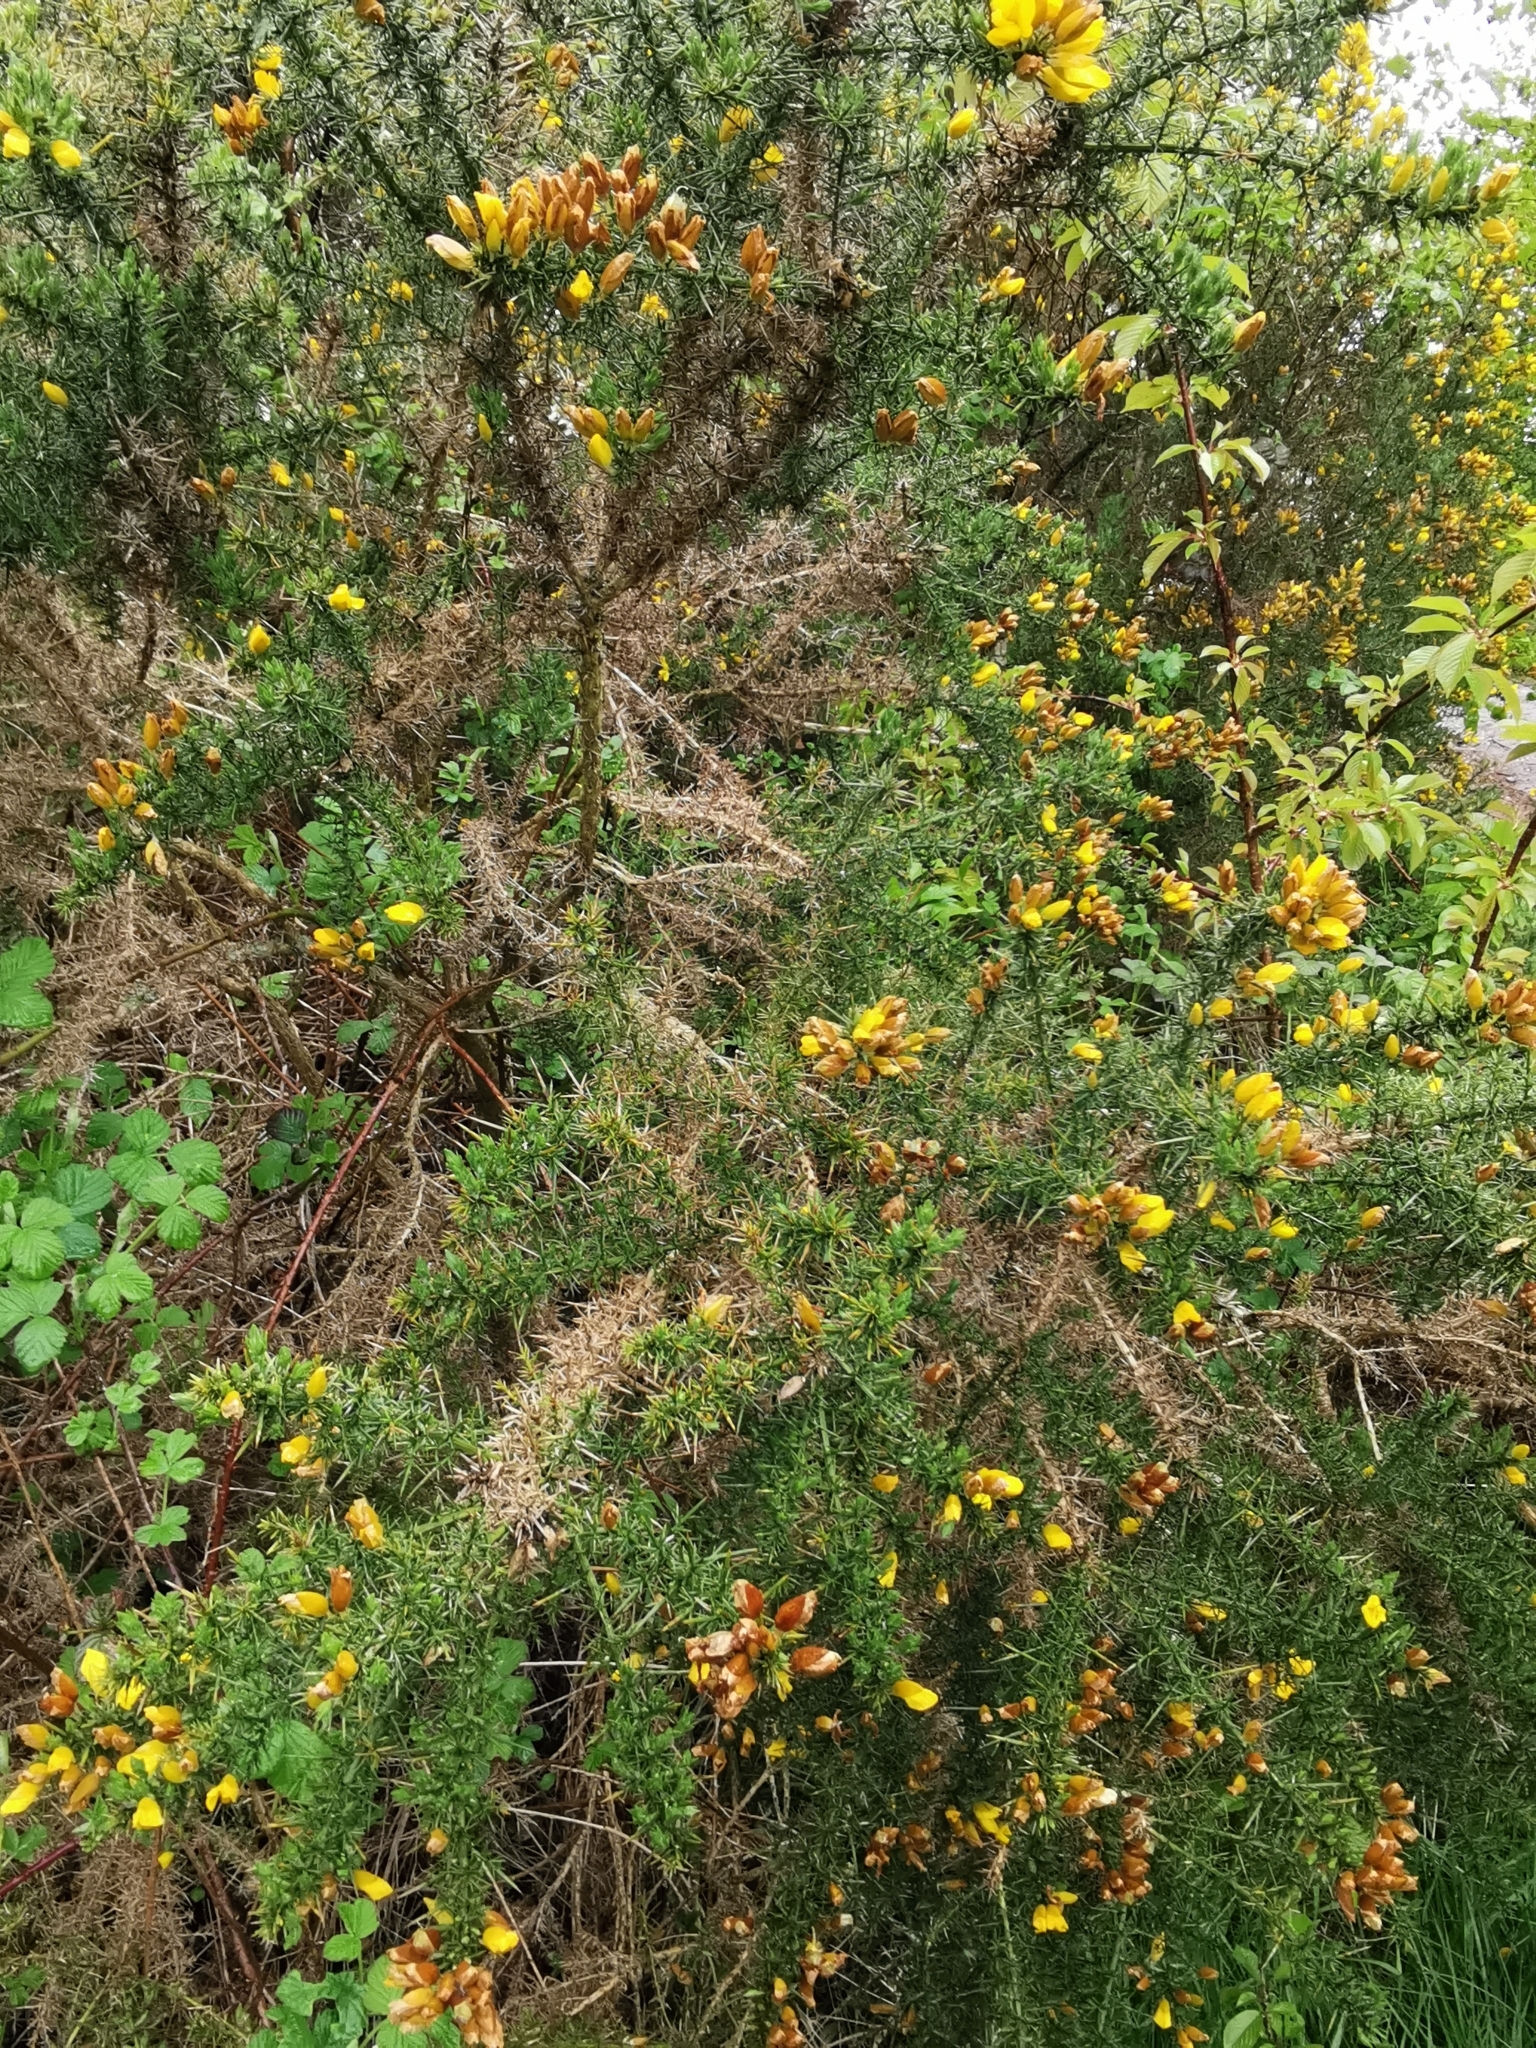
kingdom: Plantae
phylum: Tracheophyta
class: Magnoliopsida
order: Fabales
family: Fabaceae
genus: Ulex
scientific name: Ulex europaeus
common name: Common gorse
